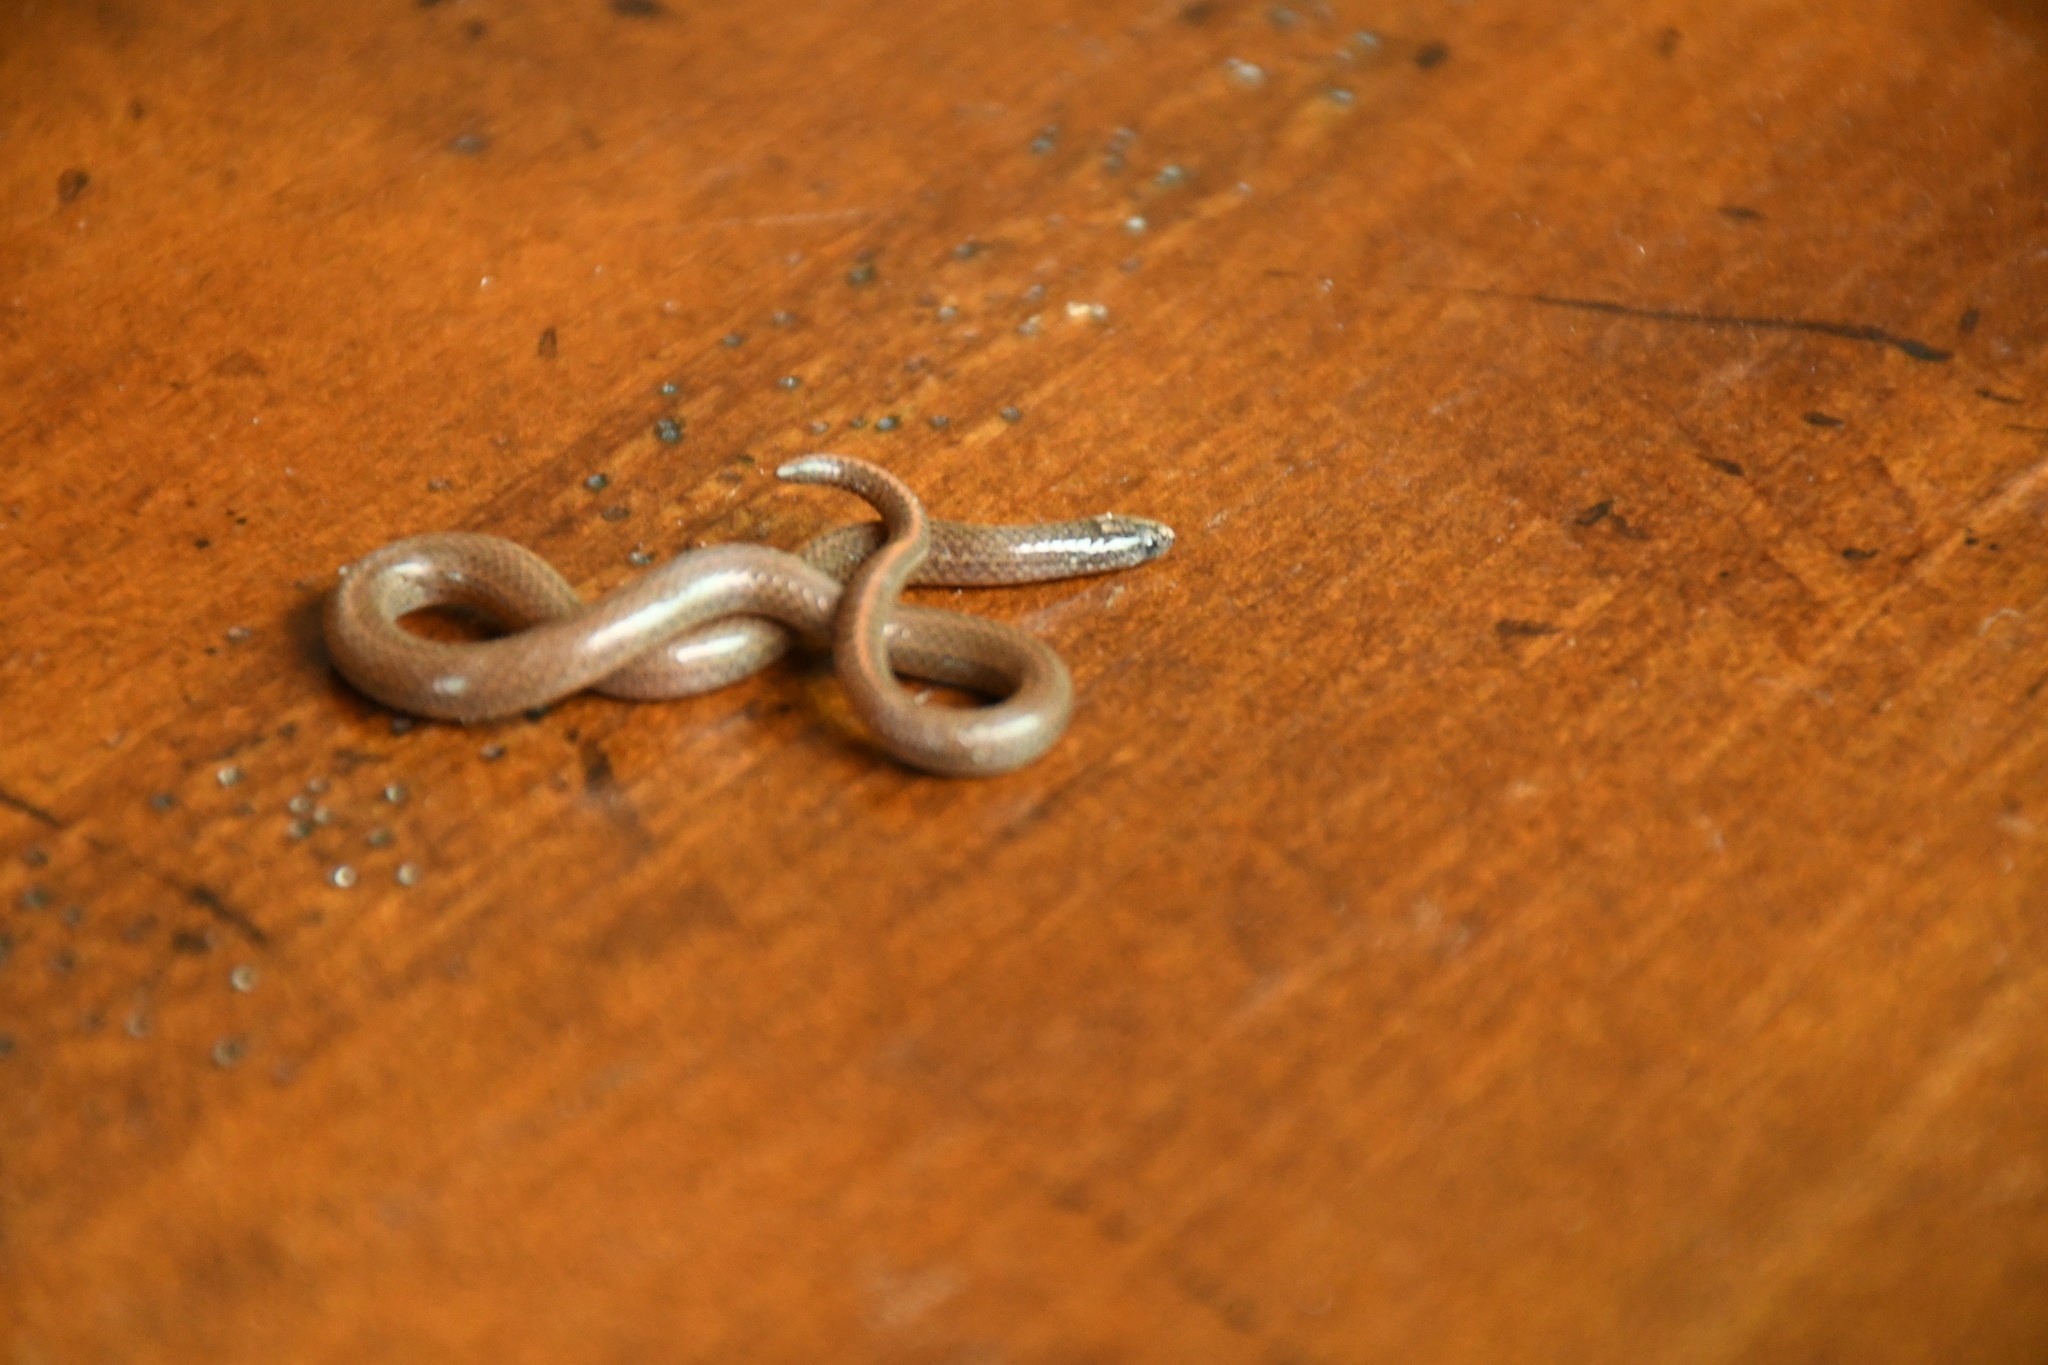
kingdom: Animalia
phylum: Chordata
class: Squamata
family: Colubridae
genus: Tantillita
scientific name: Tantillita canula
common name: Yucatecan dwarf short-tail snake
